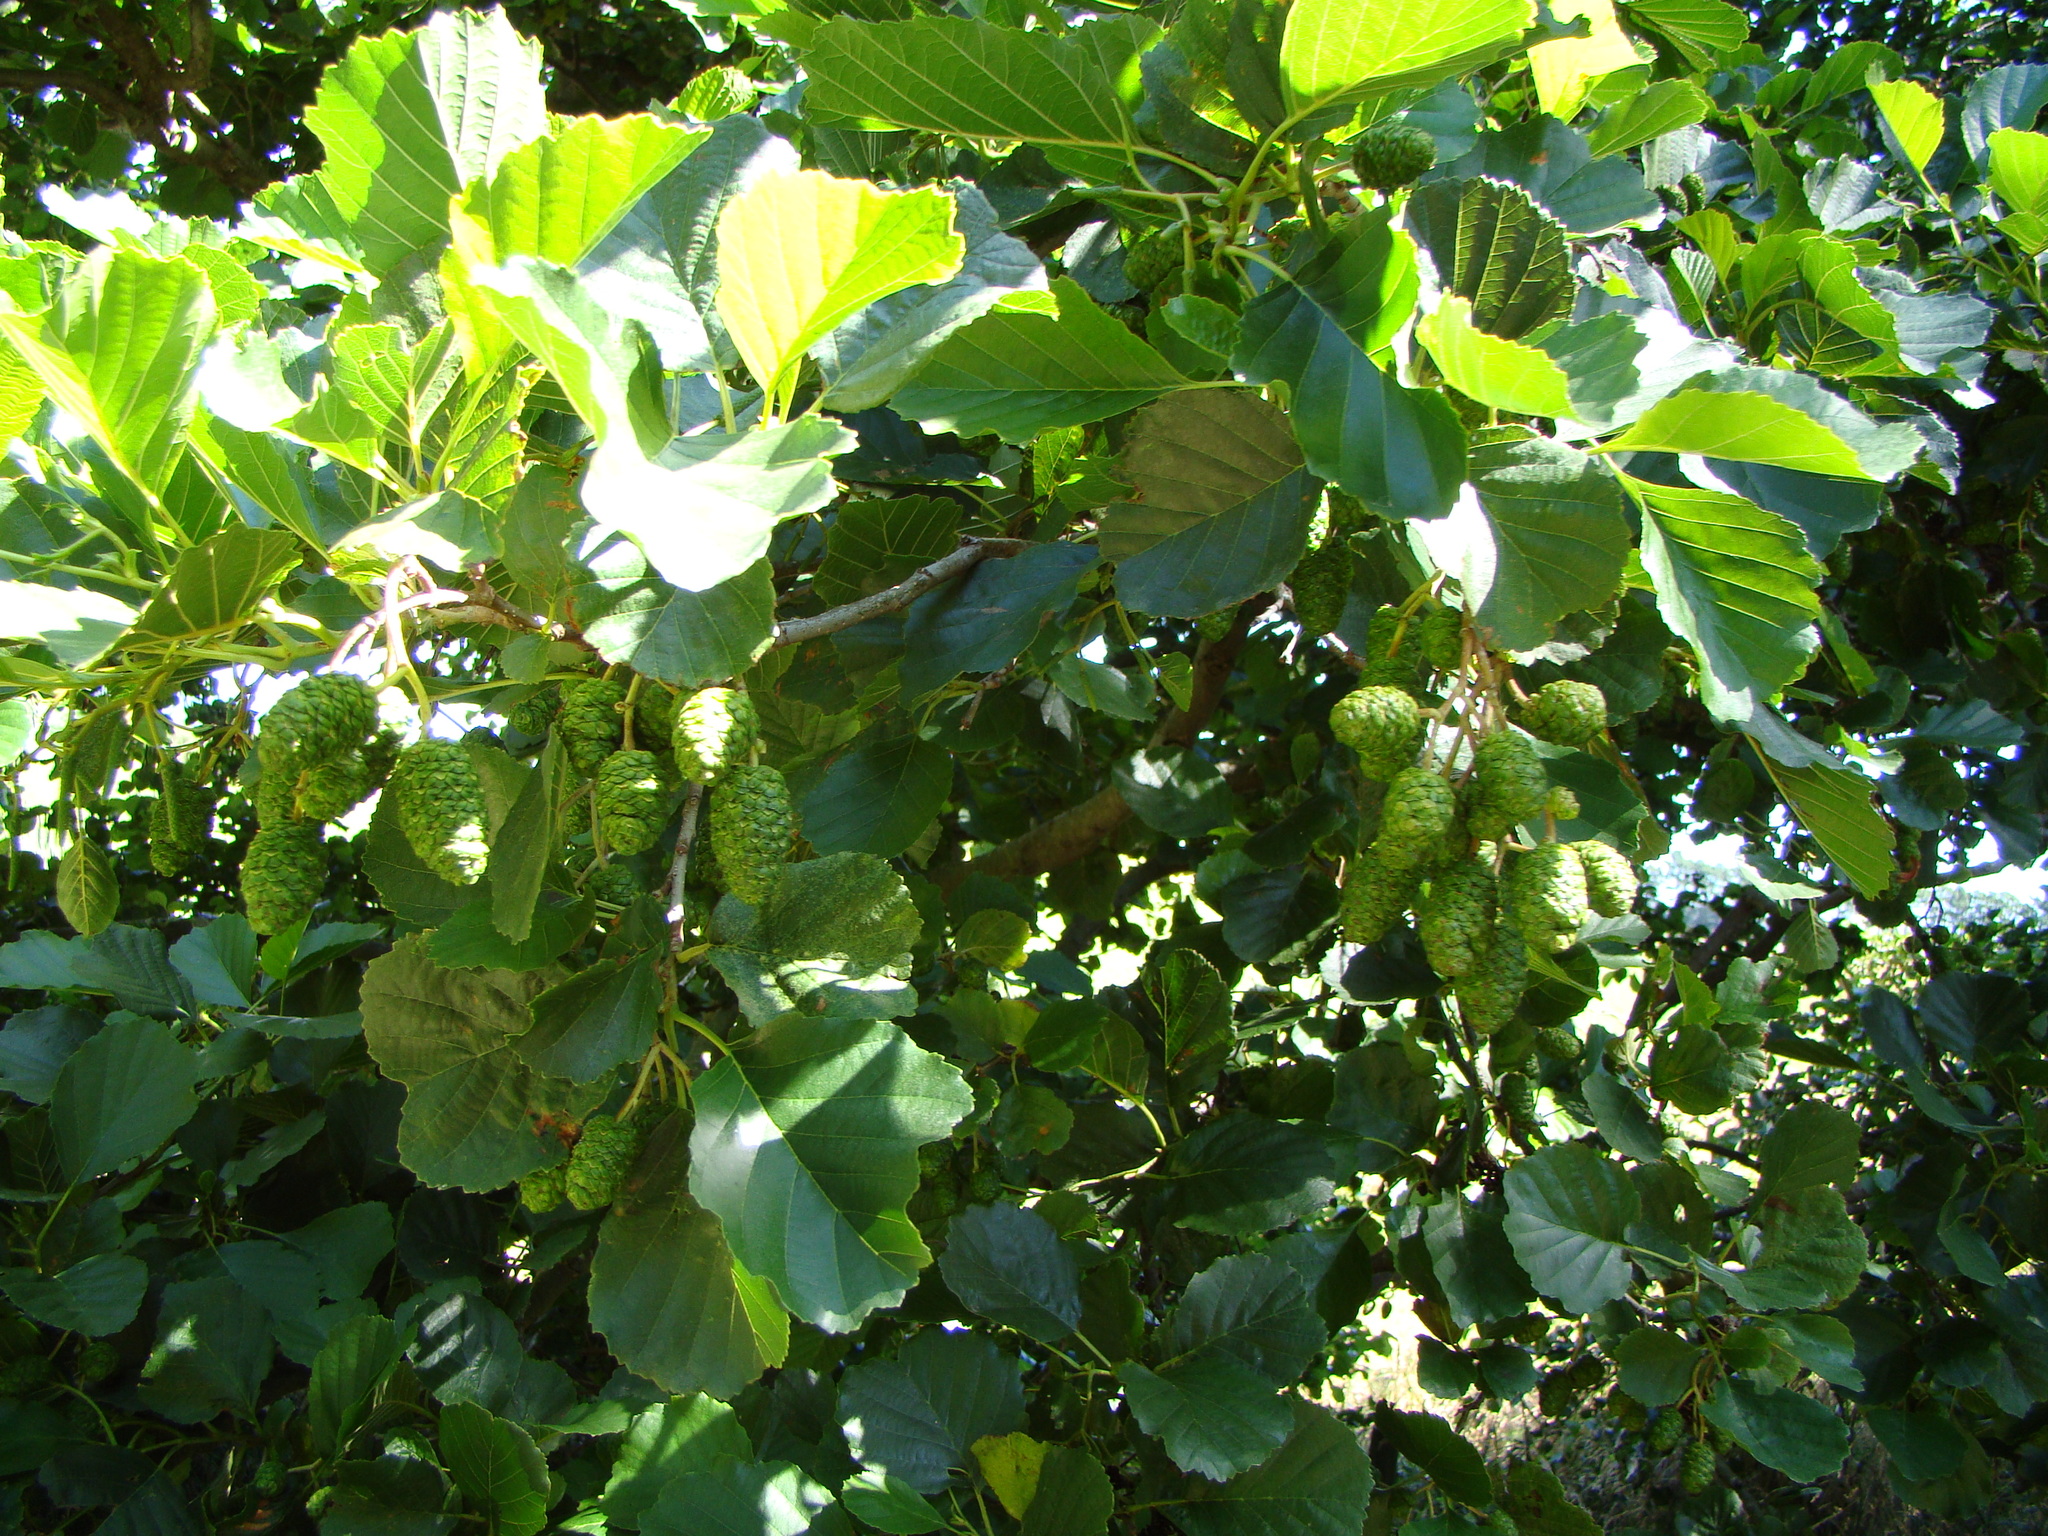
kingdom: Plantae
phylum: Tracheophyta
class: Magnoliopsida
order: Fagales
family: Betulaceae
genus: Alnus
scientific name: Alnus glutinosa
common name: Black alder
